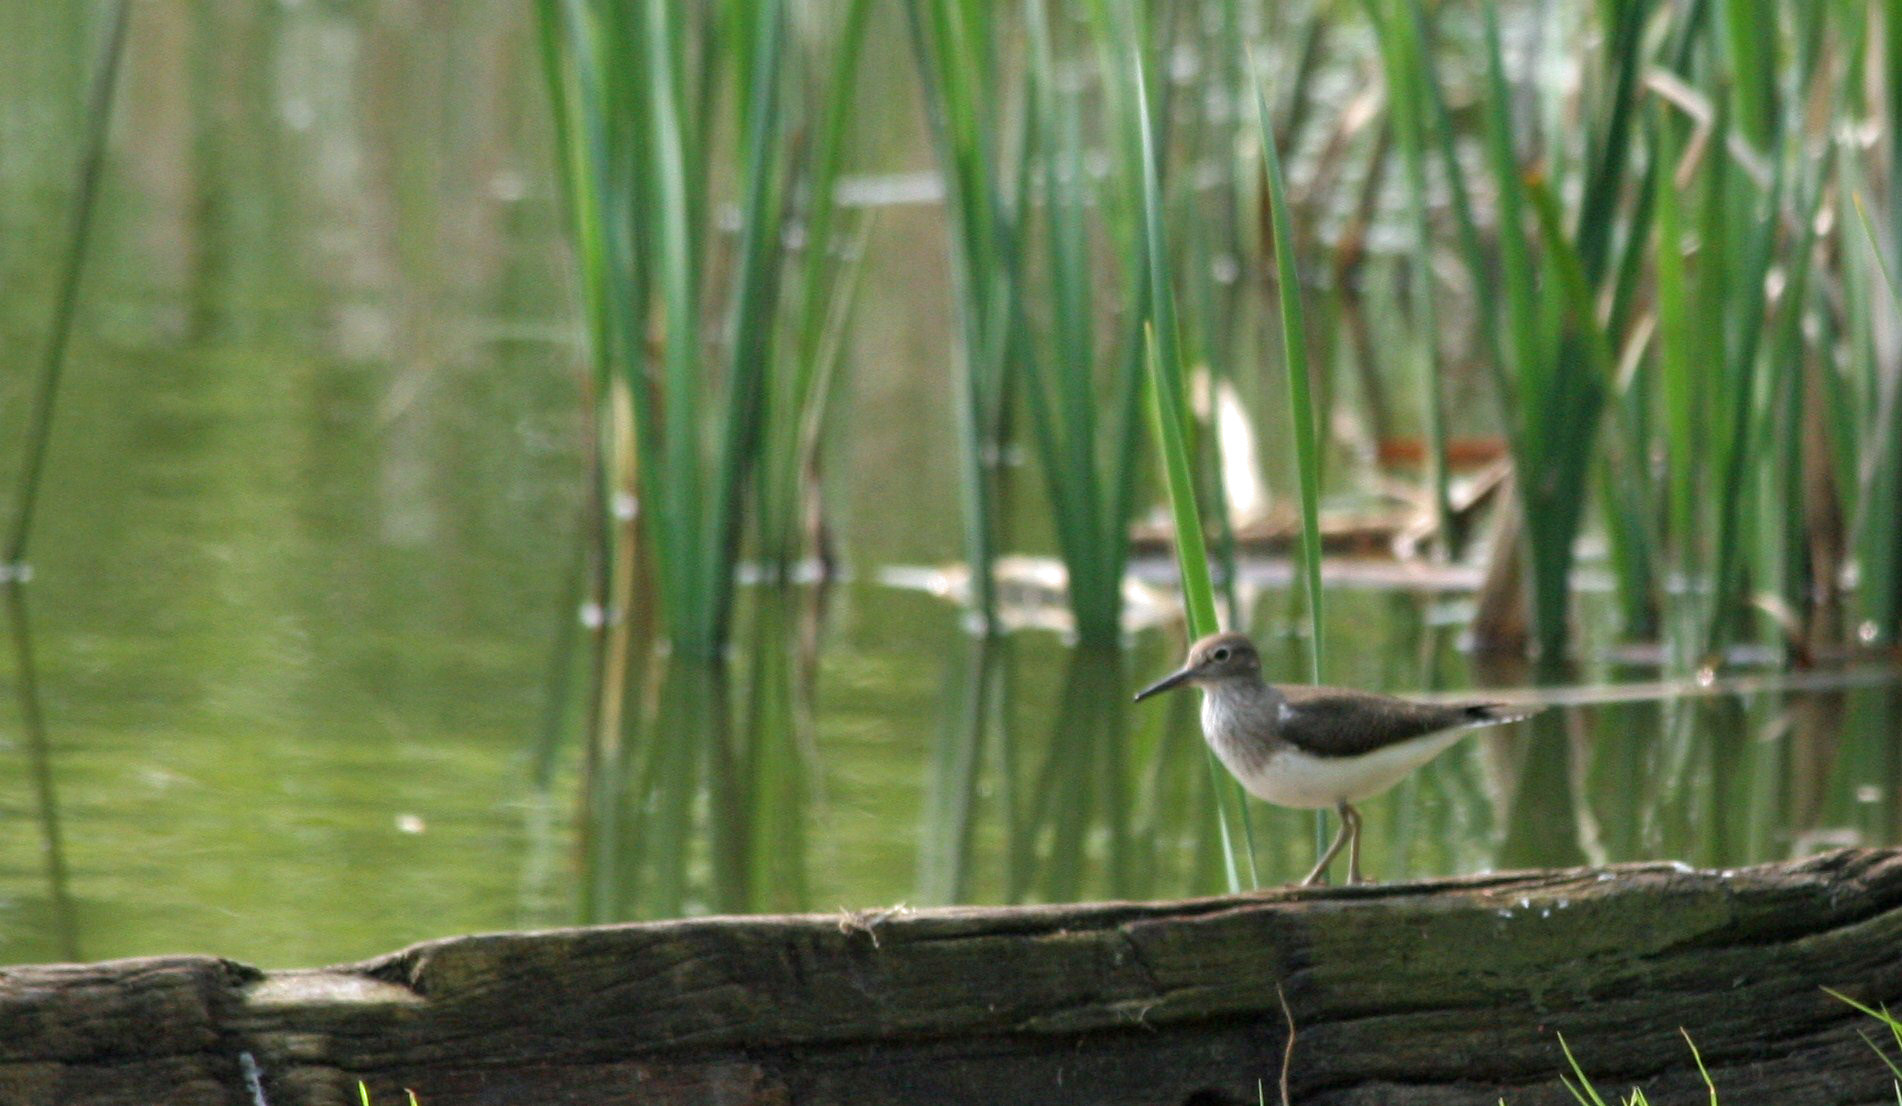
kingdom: Animalia
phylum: Chordata
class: Aves
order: Charadriiformes
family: Scolopacidae
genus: Actitis
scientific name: Actitis hypoleucos
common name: Common sandpiper
